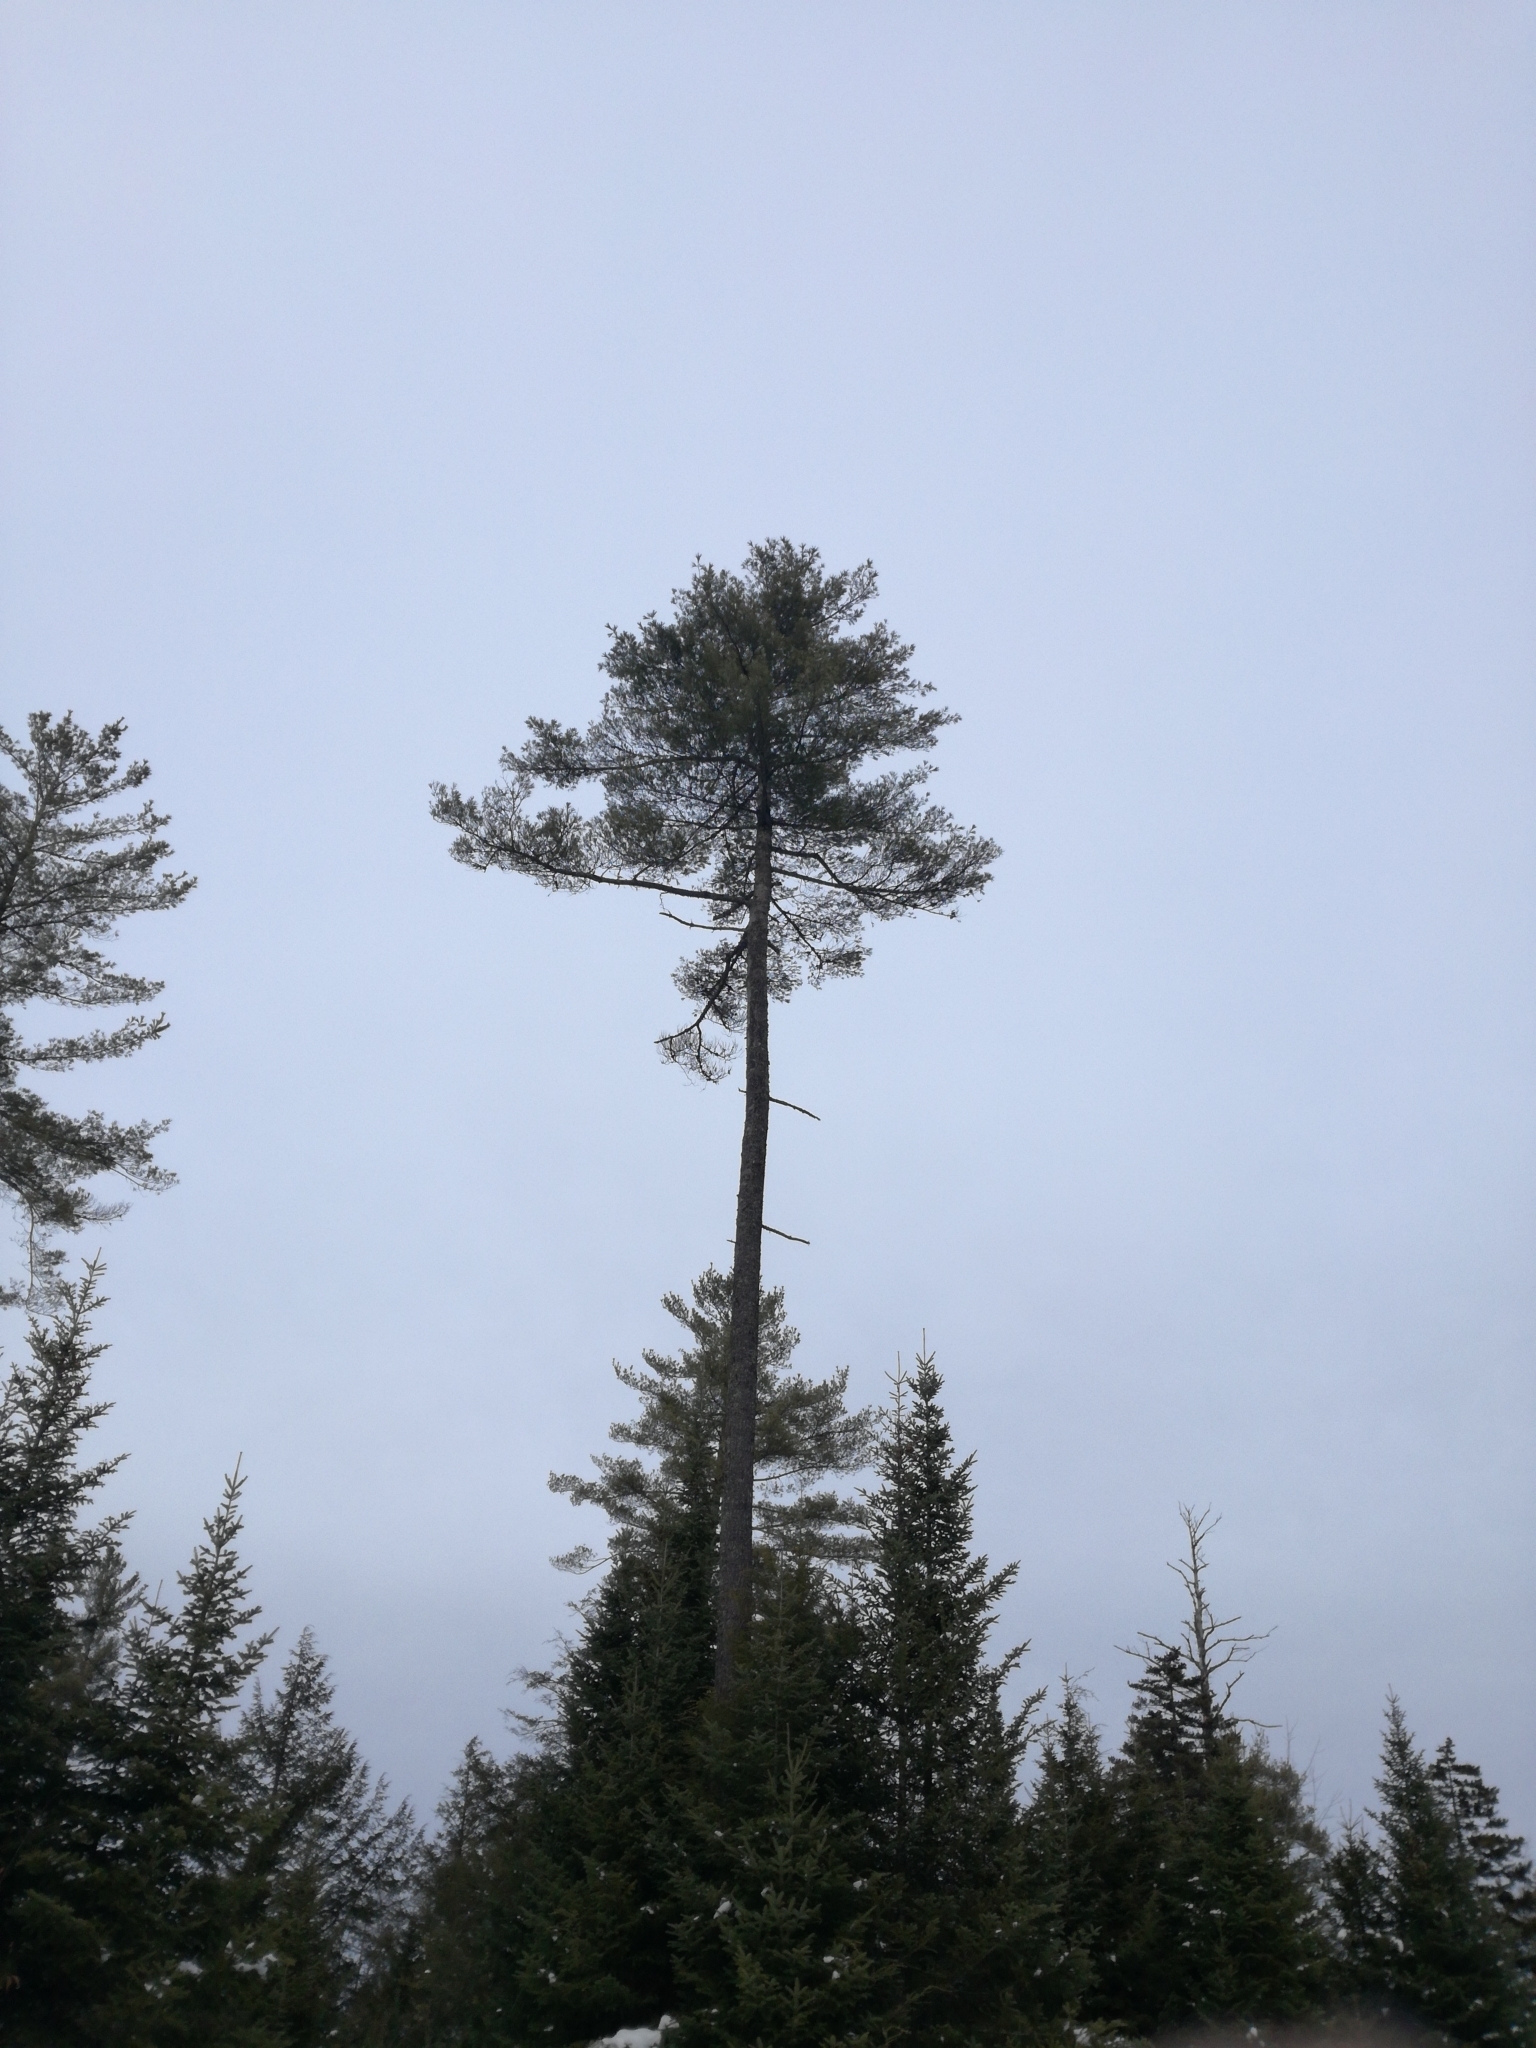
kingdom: Plantae
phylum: Tracheophyta
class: Pinopsida
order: Pinales
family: Pinaceae
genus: Pinus
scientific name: Pinus strobus
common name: Weymouth pine
